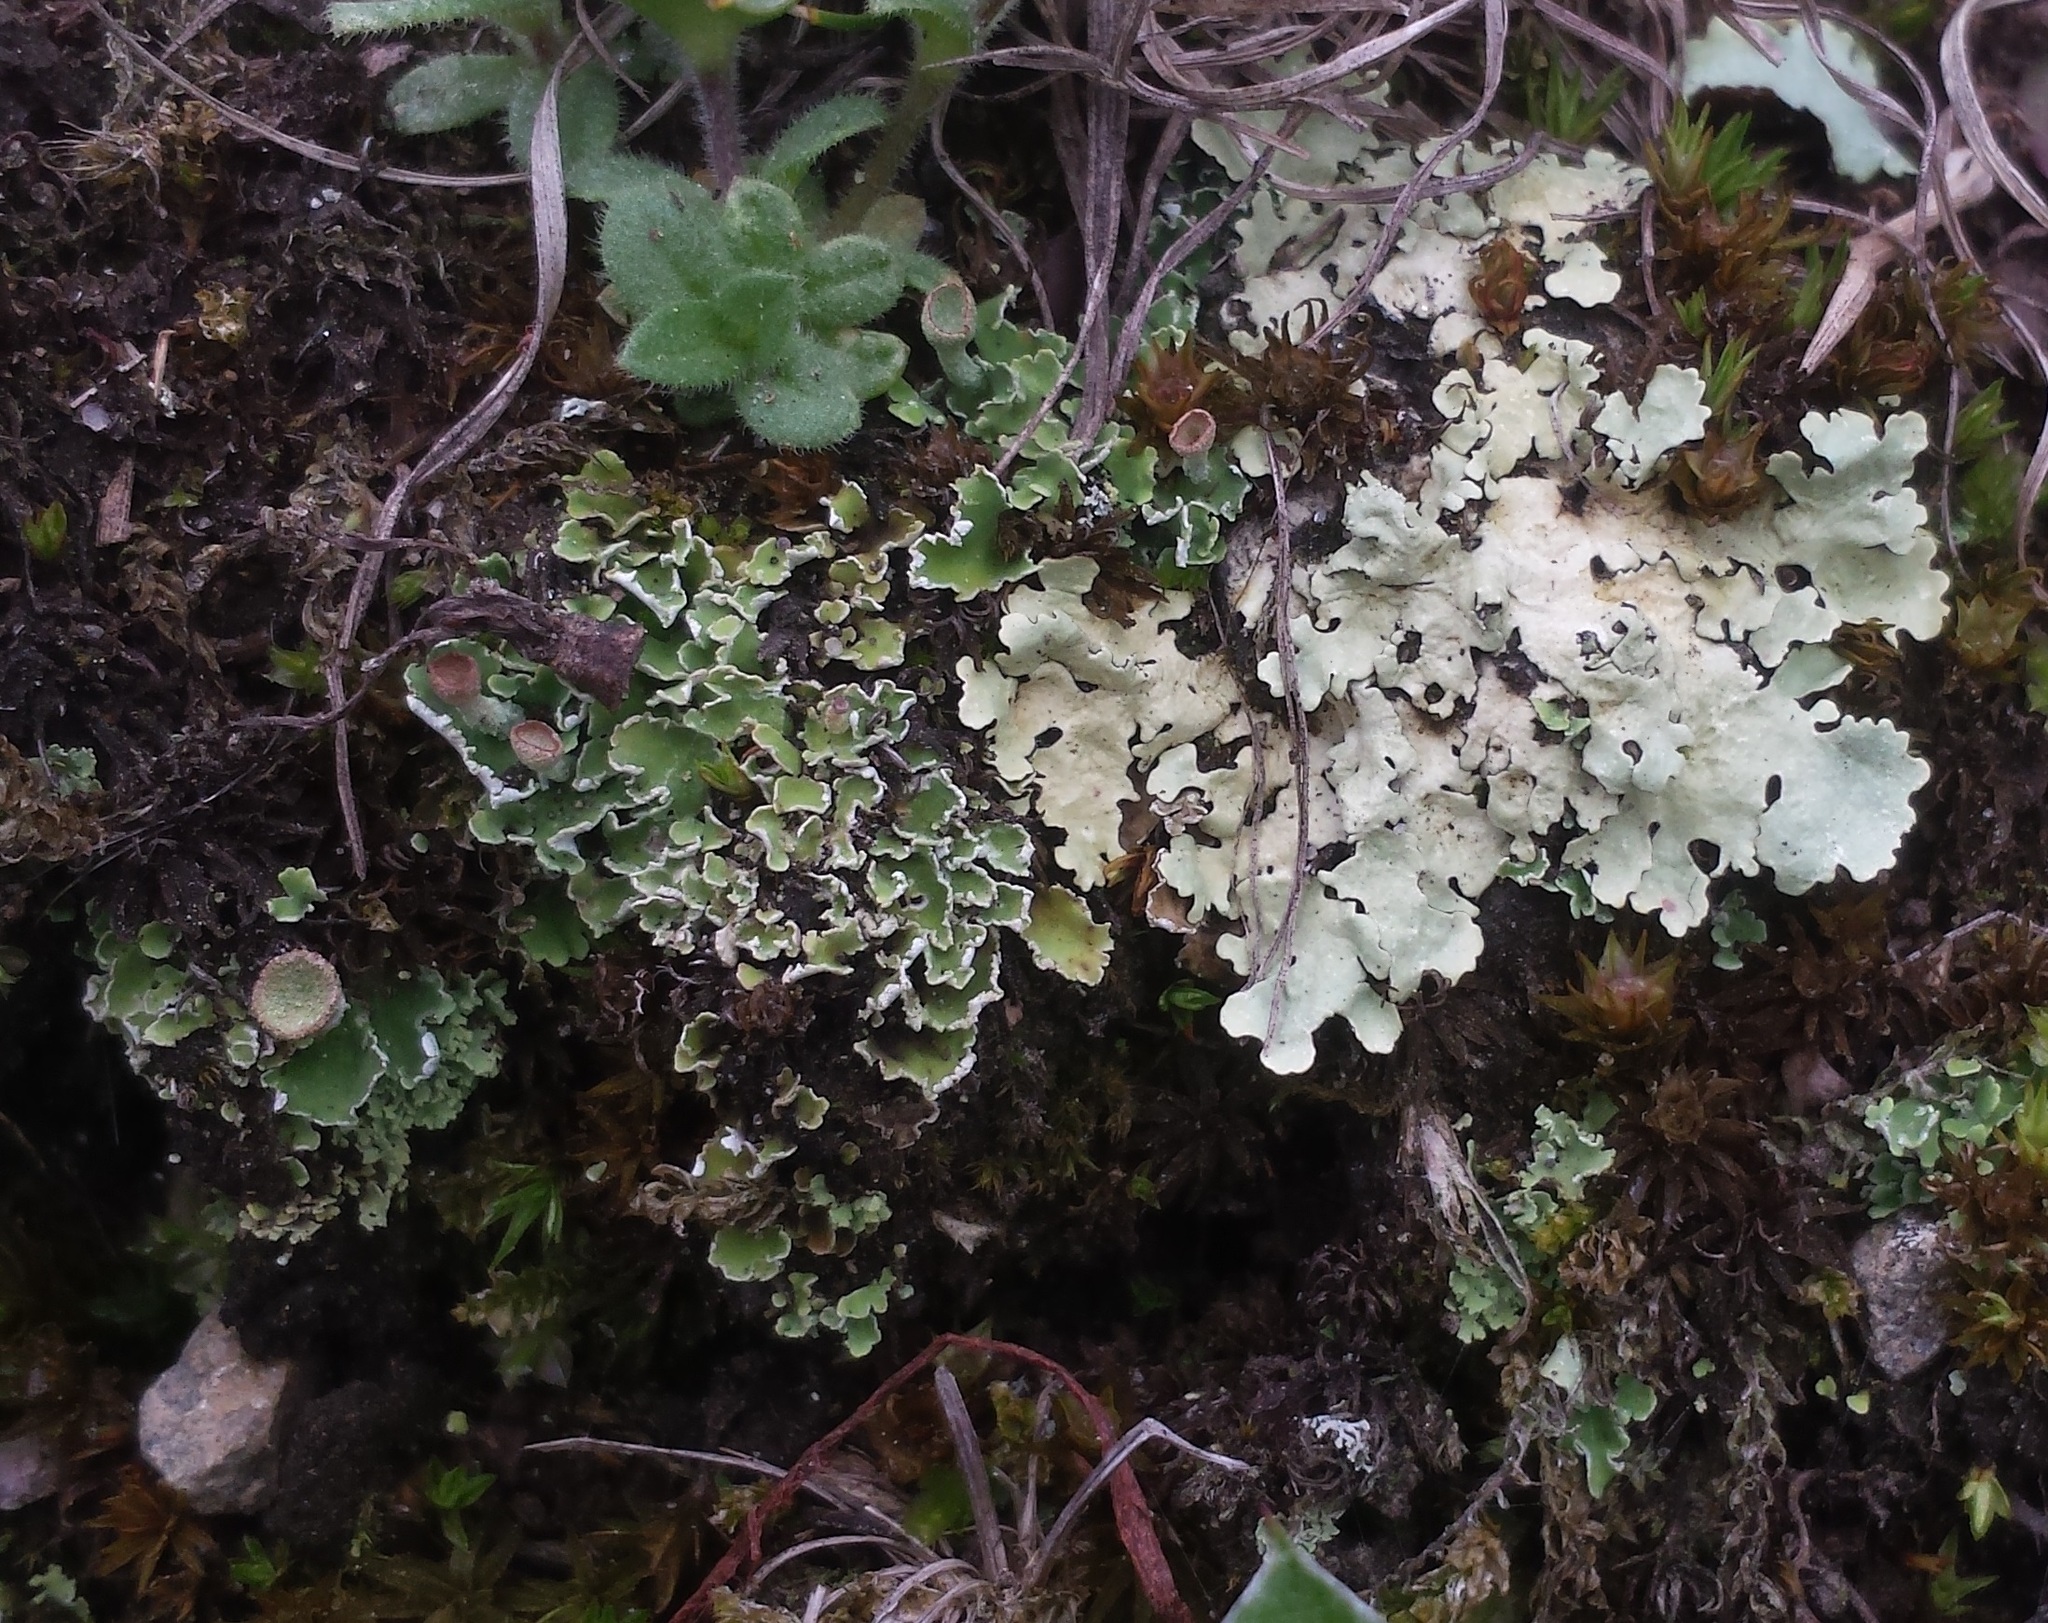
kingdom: Fungi
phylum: Ascomycota
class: Lecanoromycetes
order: Lecanorales
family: Parmeliaceae
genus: Flavoparmelia
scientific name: Flavoparmelia caperata
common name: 40-mile per hour lichen
